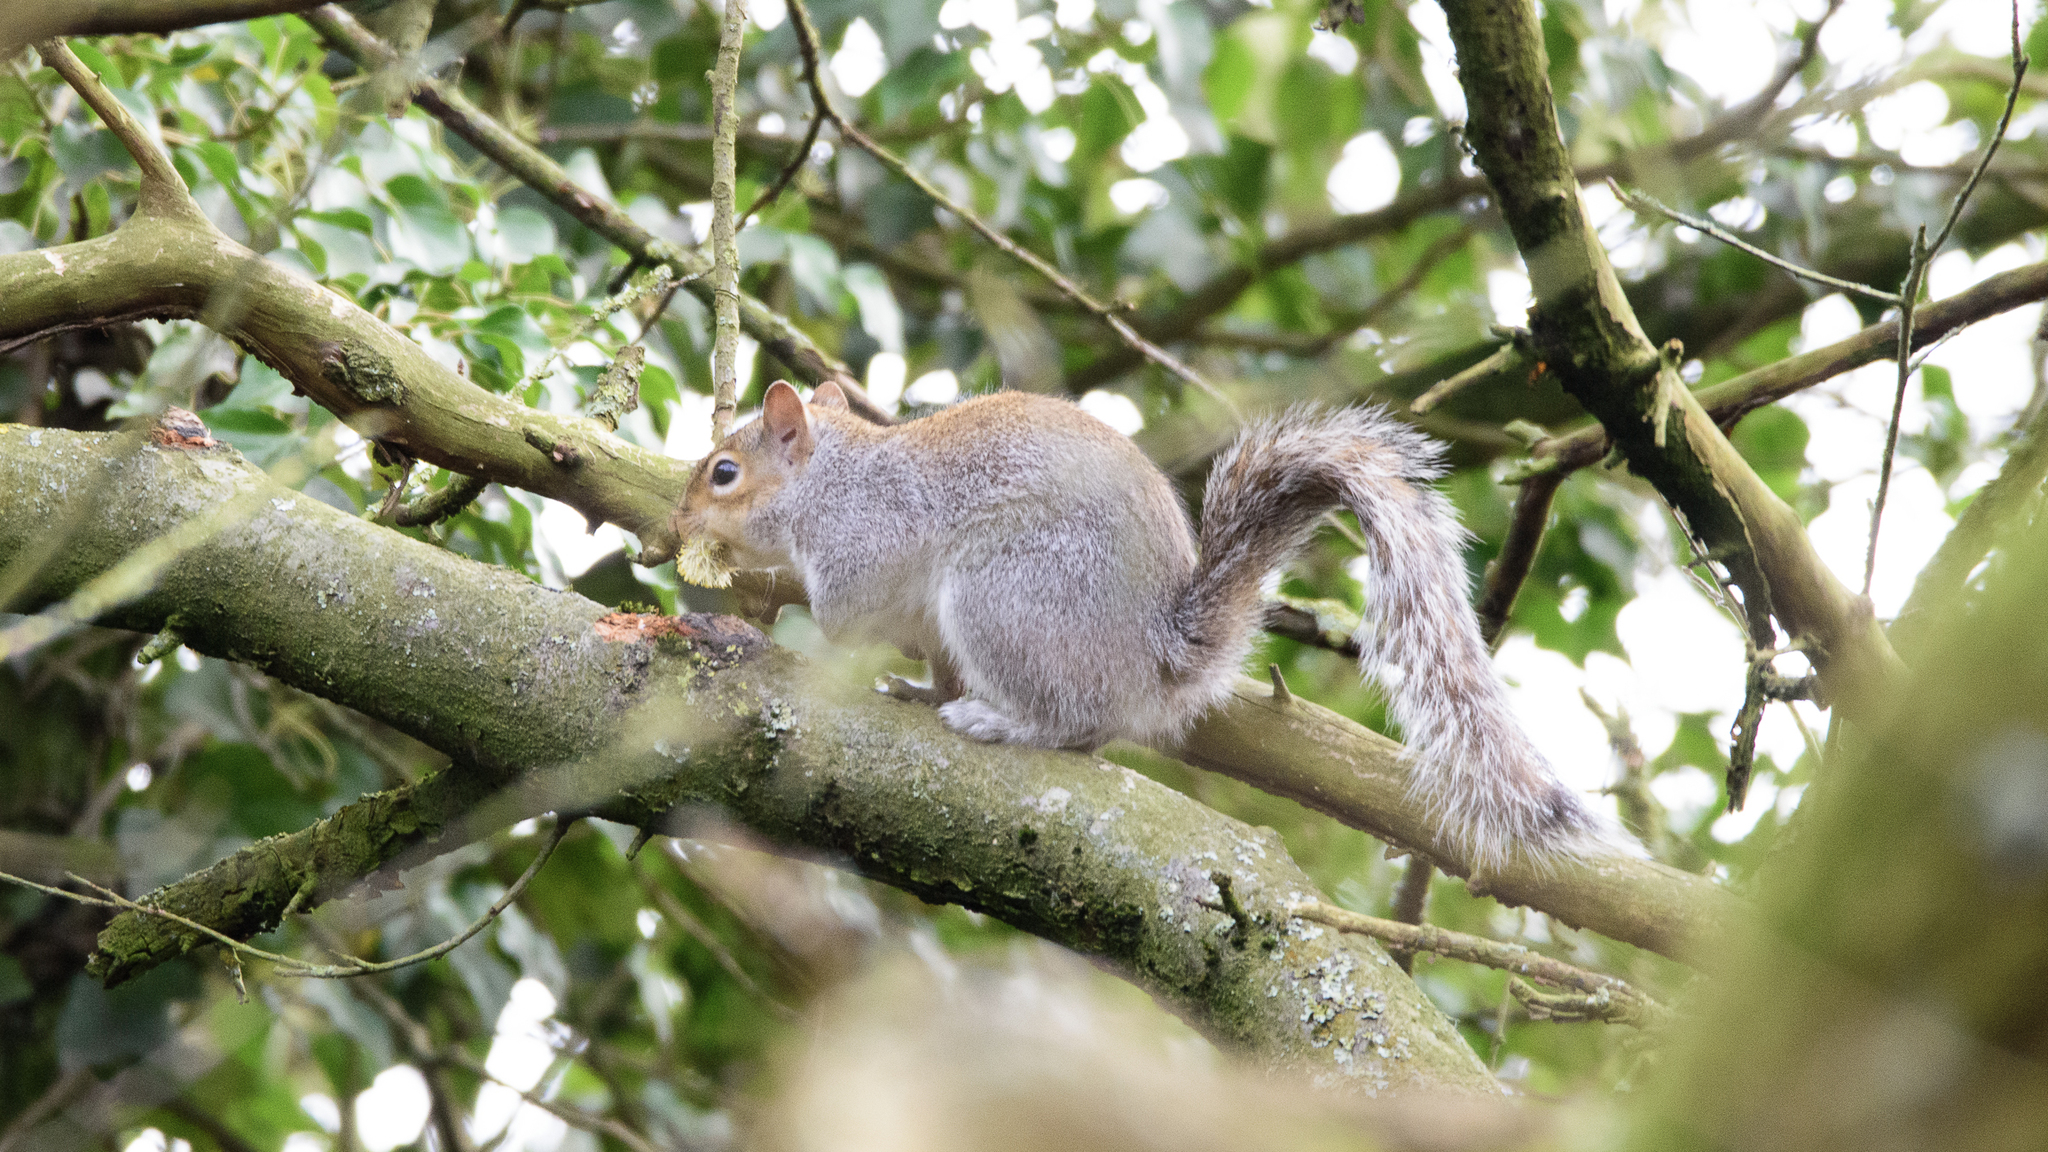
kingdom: Animalia
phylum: Chordata
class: Mammalia
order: Rodentia
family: Sciuridae
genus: Sciurus
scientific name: Sciurus carolinensis
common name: Eastern gray squirrel
